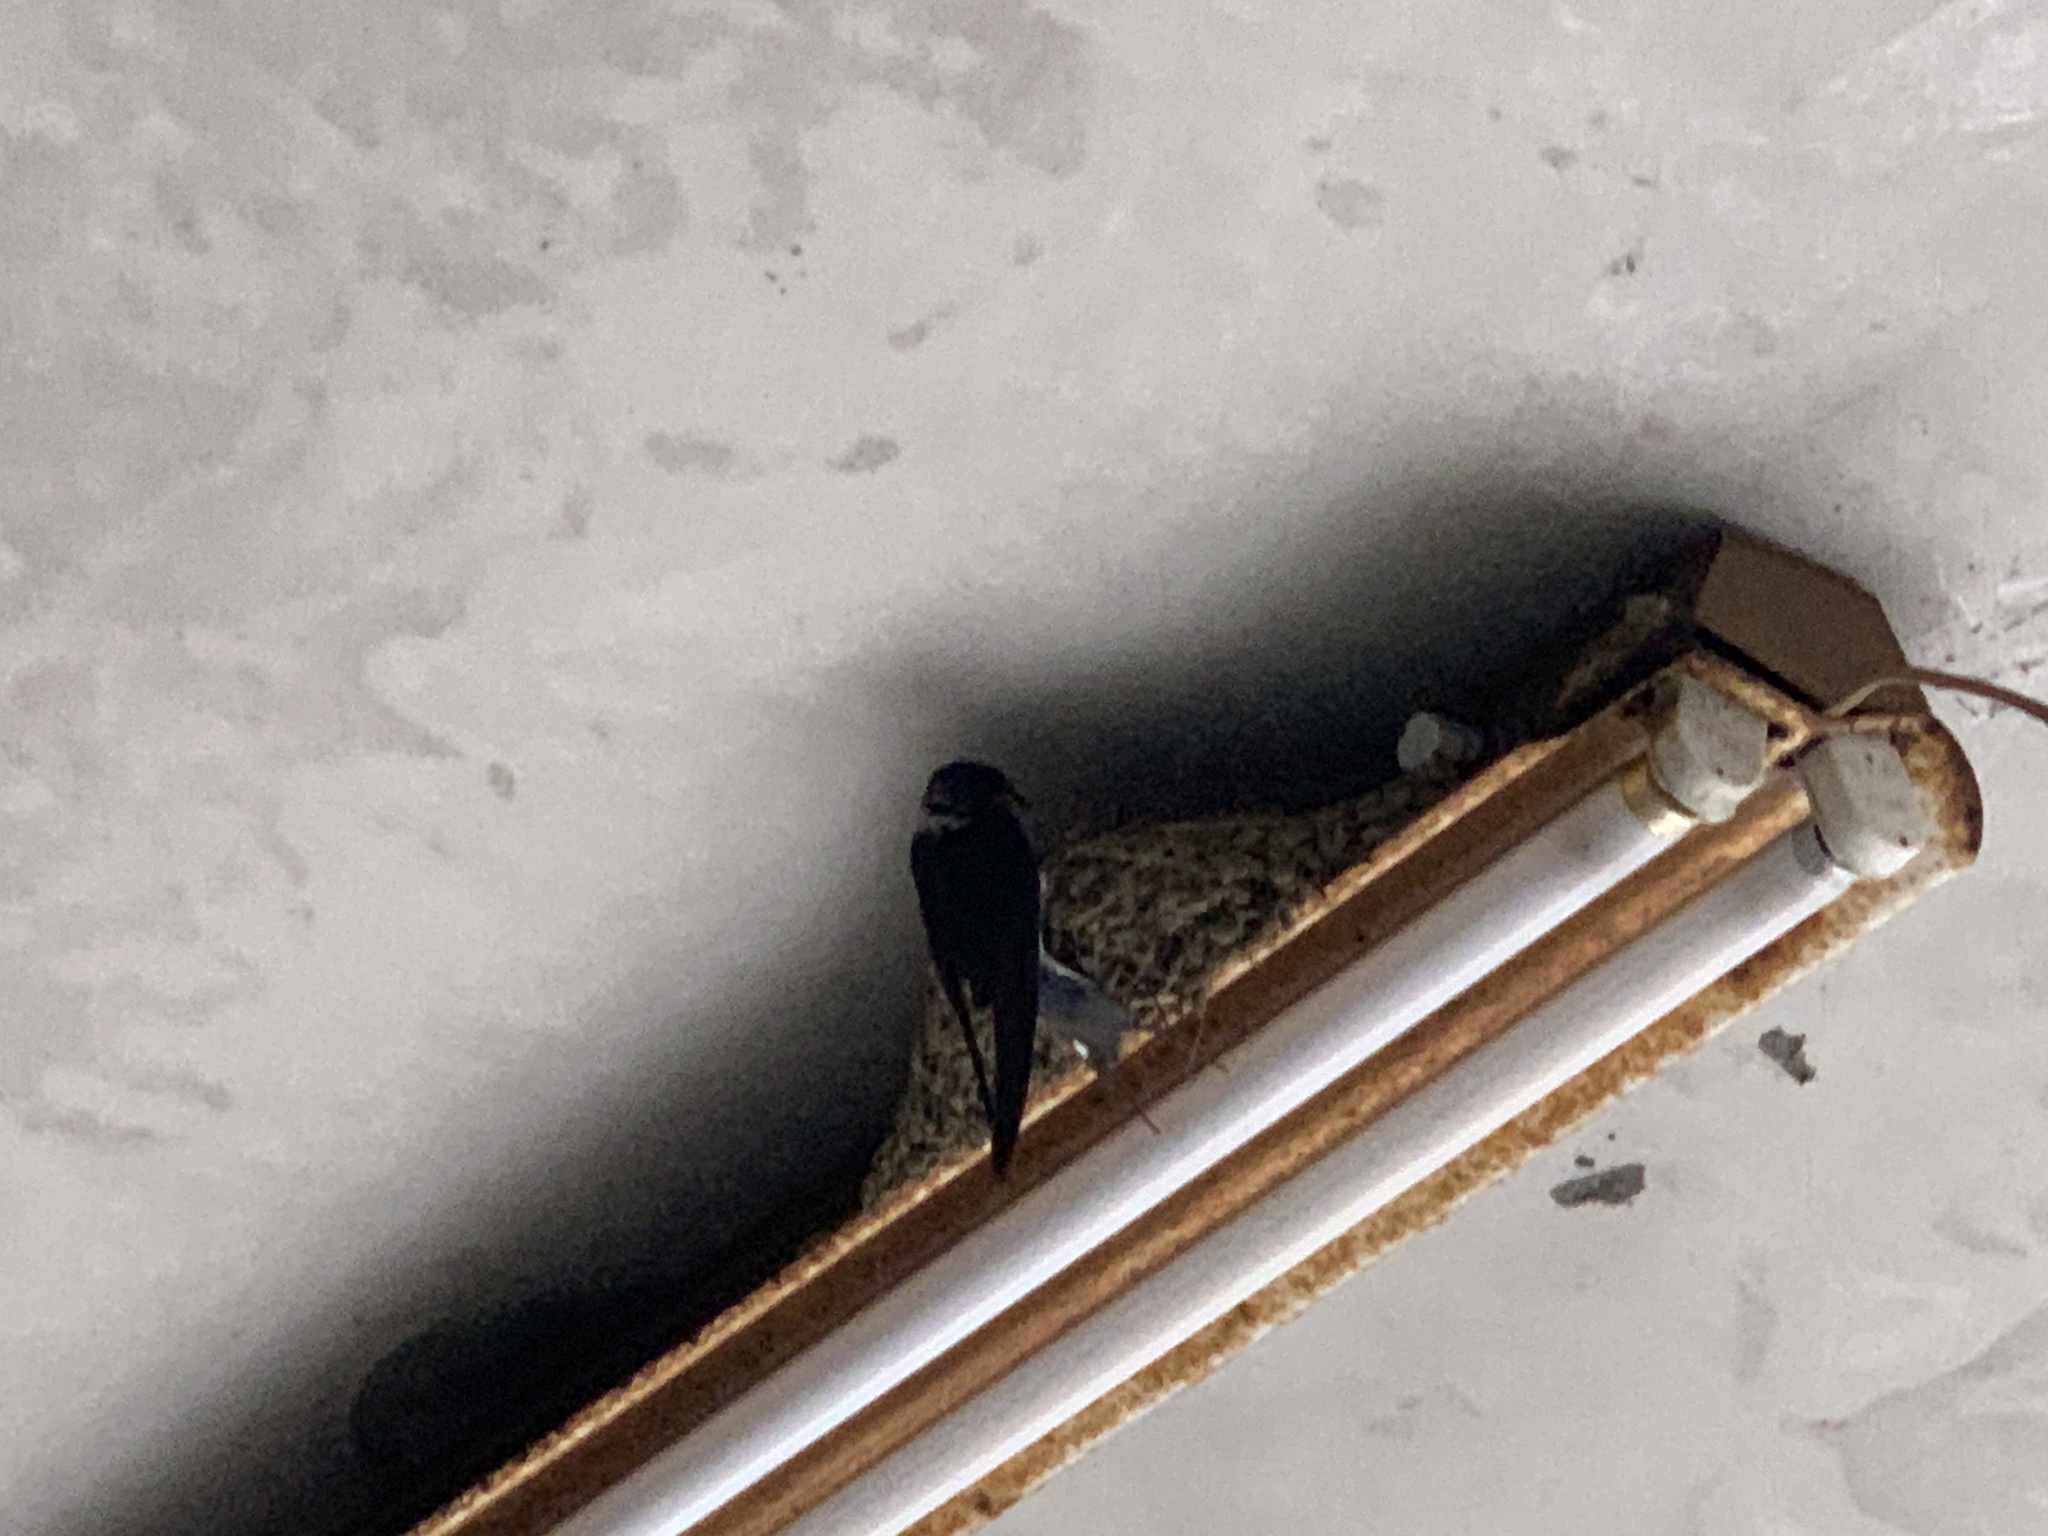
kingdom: Animalia
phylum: Chordata
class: Aves
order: Passeriformes
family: Hirundinidae
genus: Hirundo
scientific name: Hirundo rustica
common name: Barn swallow
